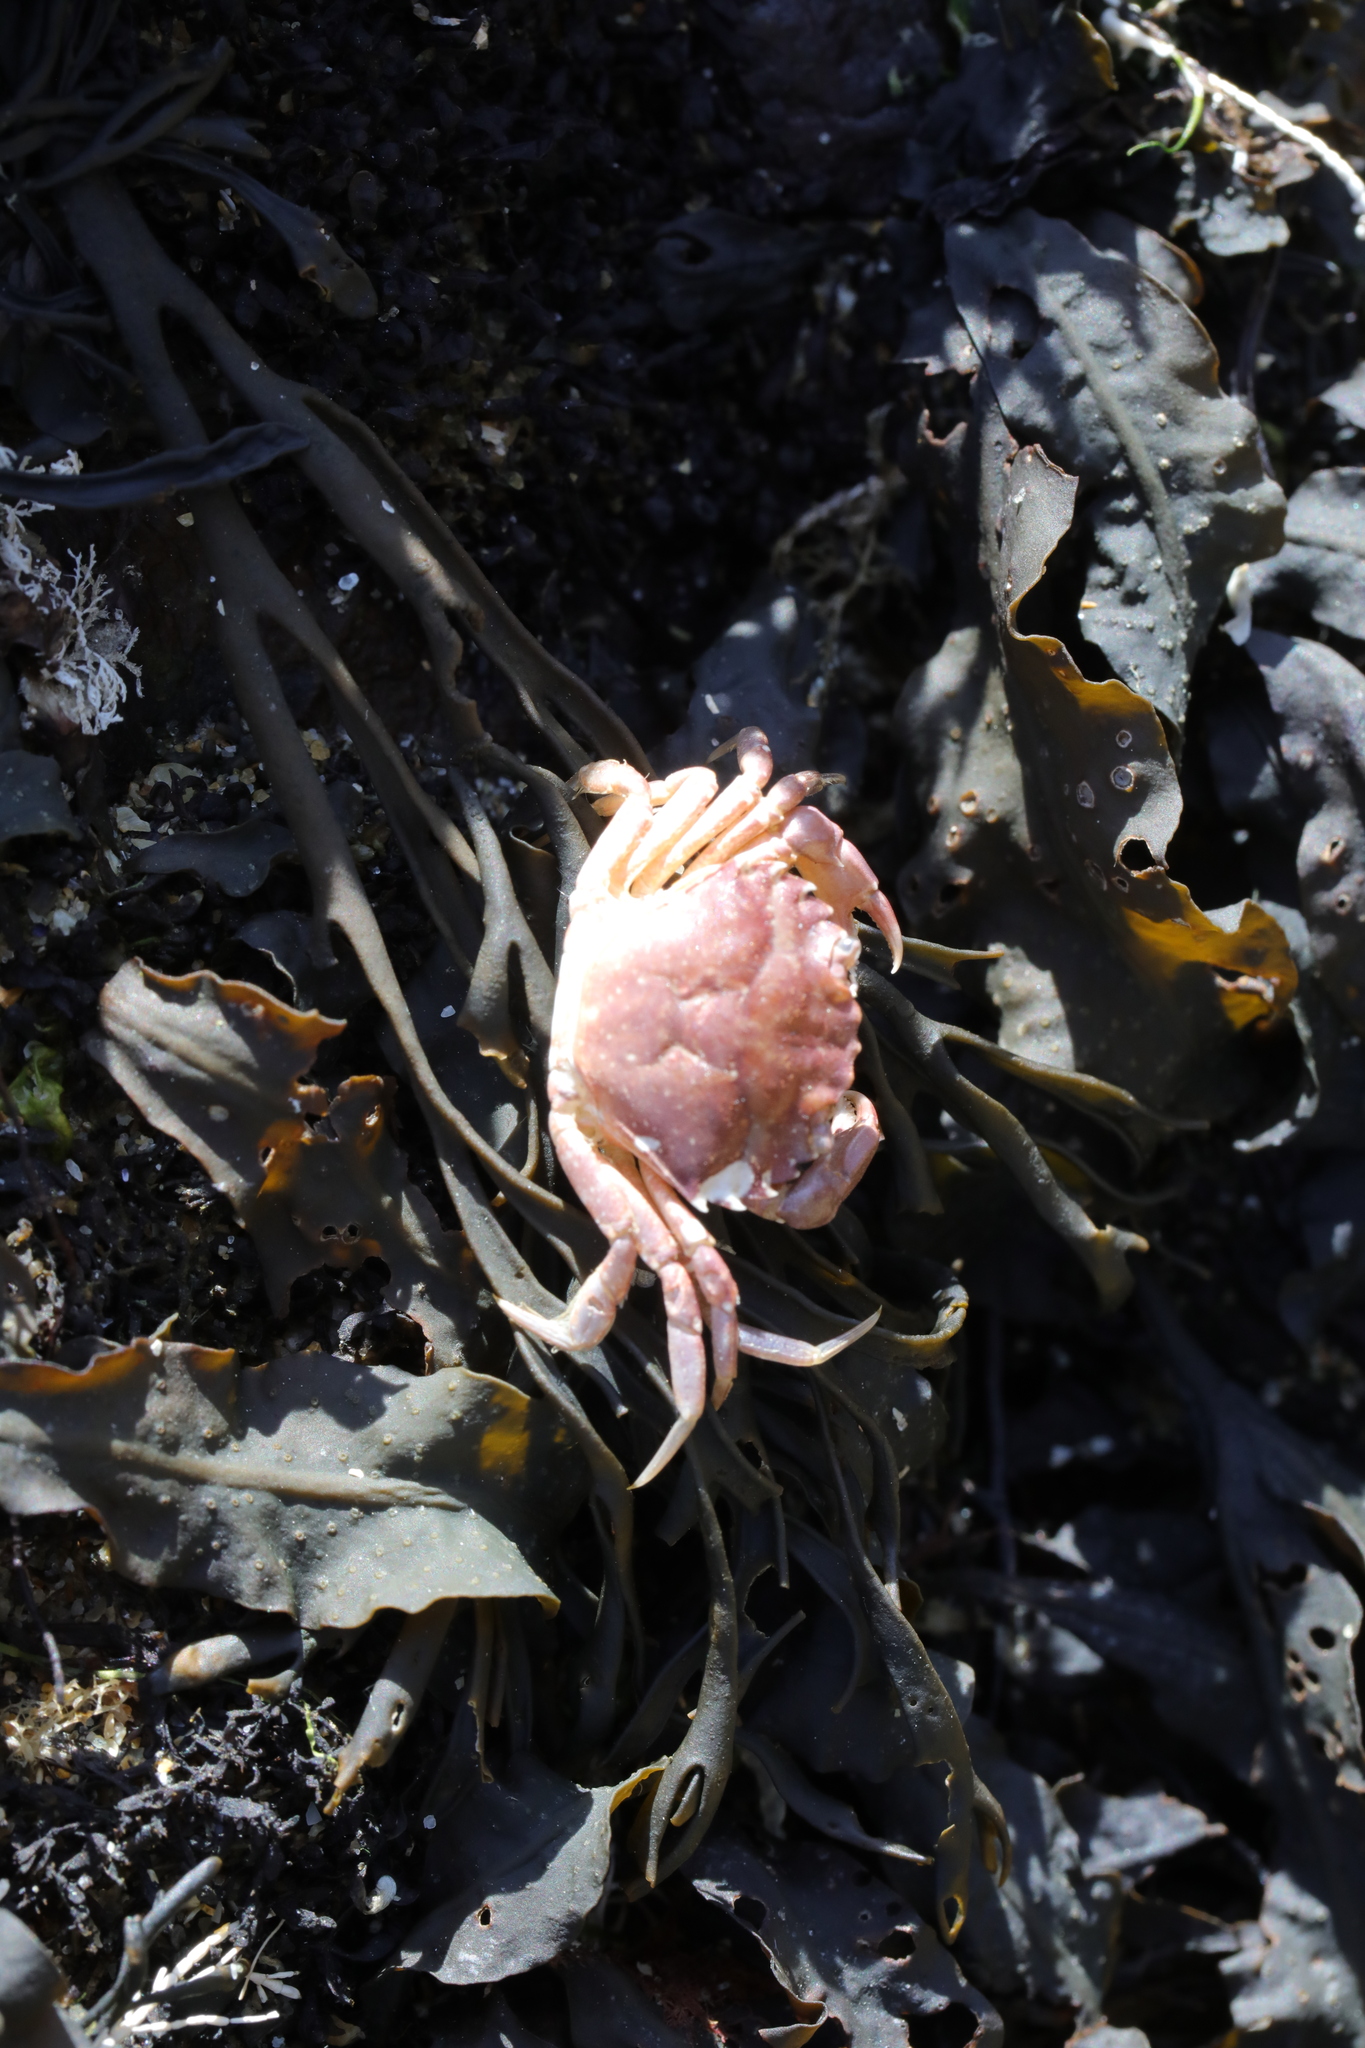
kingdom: Animalia
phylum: Arthropoda
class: Malacostraca
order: Decapoda
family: Carcinidae
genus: Carcinus
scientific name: Carcinus maenas
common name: European green crab
